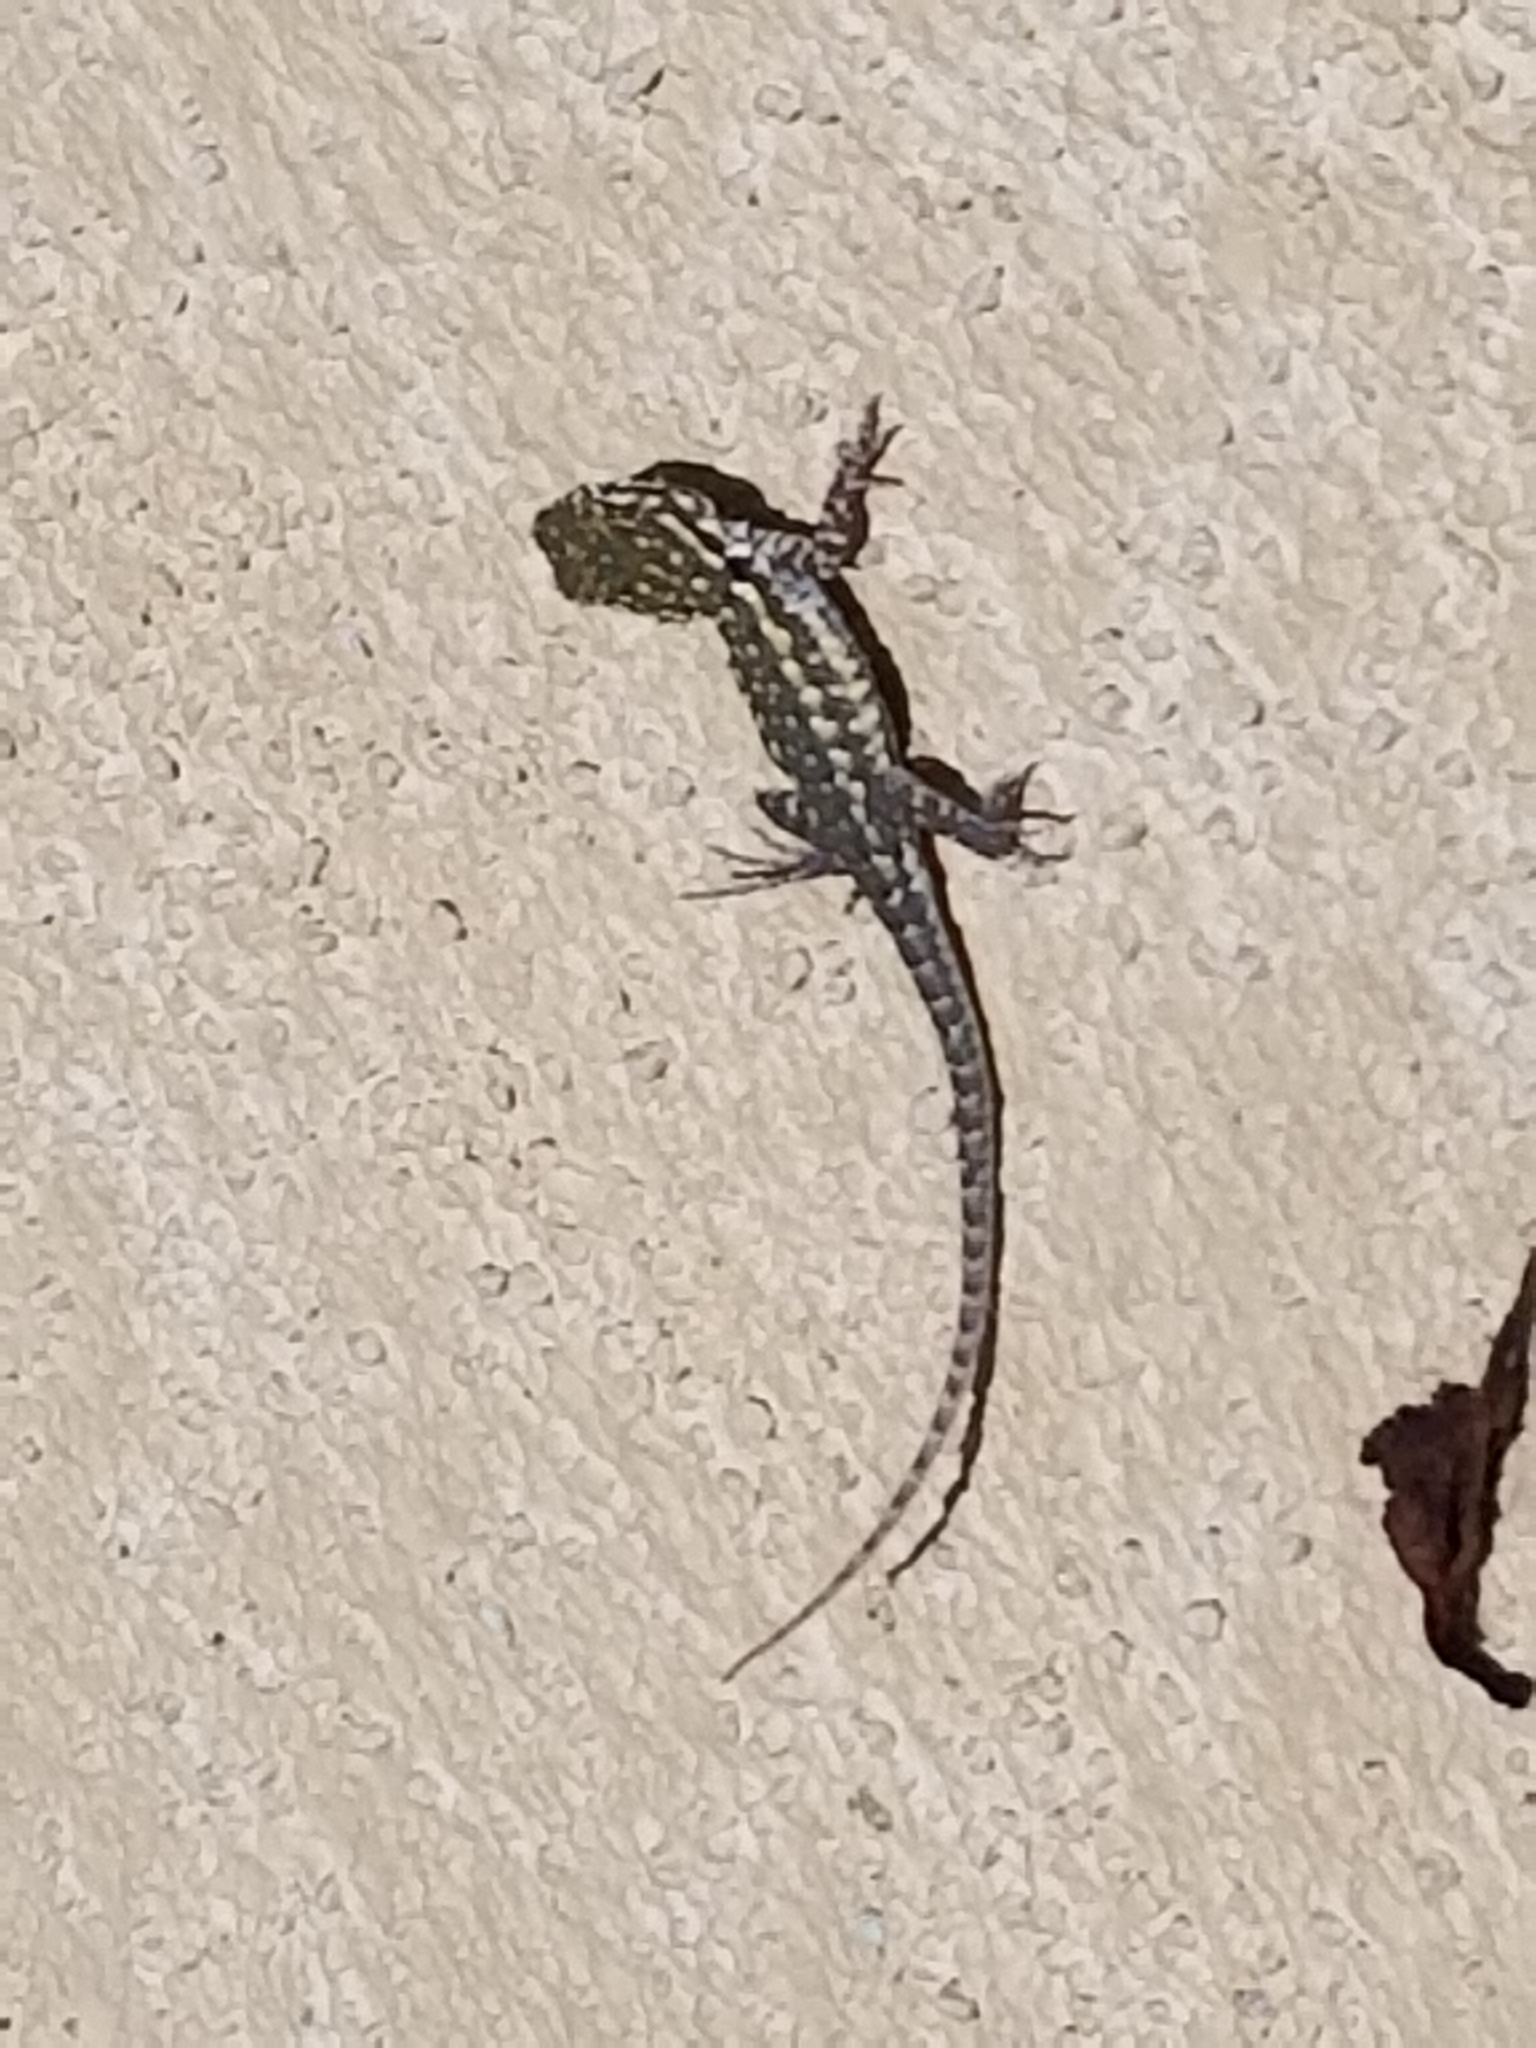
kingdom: Animalia
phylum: Chordata
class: Squamata
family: Phrynosomatidae
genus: Uta
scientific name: Uta stansburiana
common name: Side-blotched lizard
